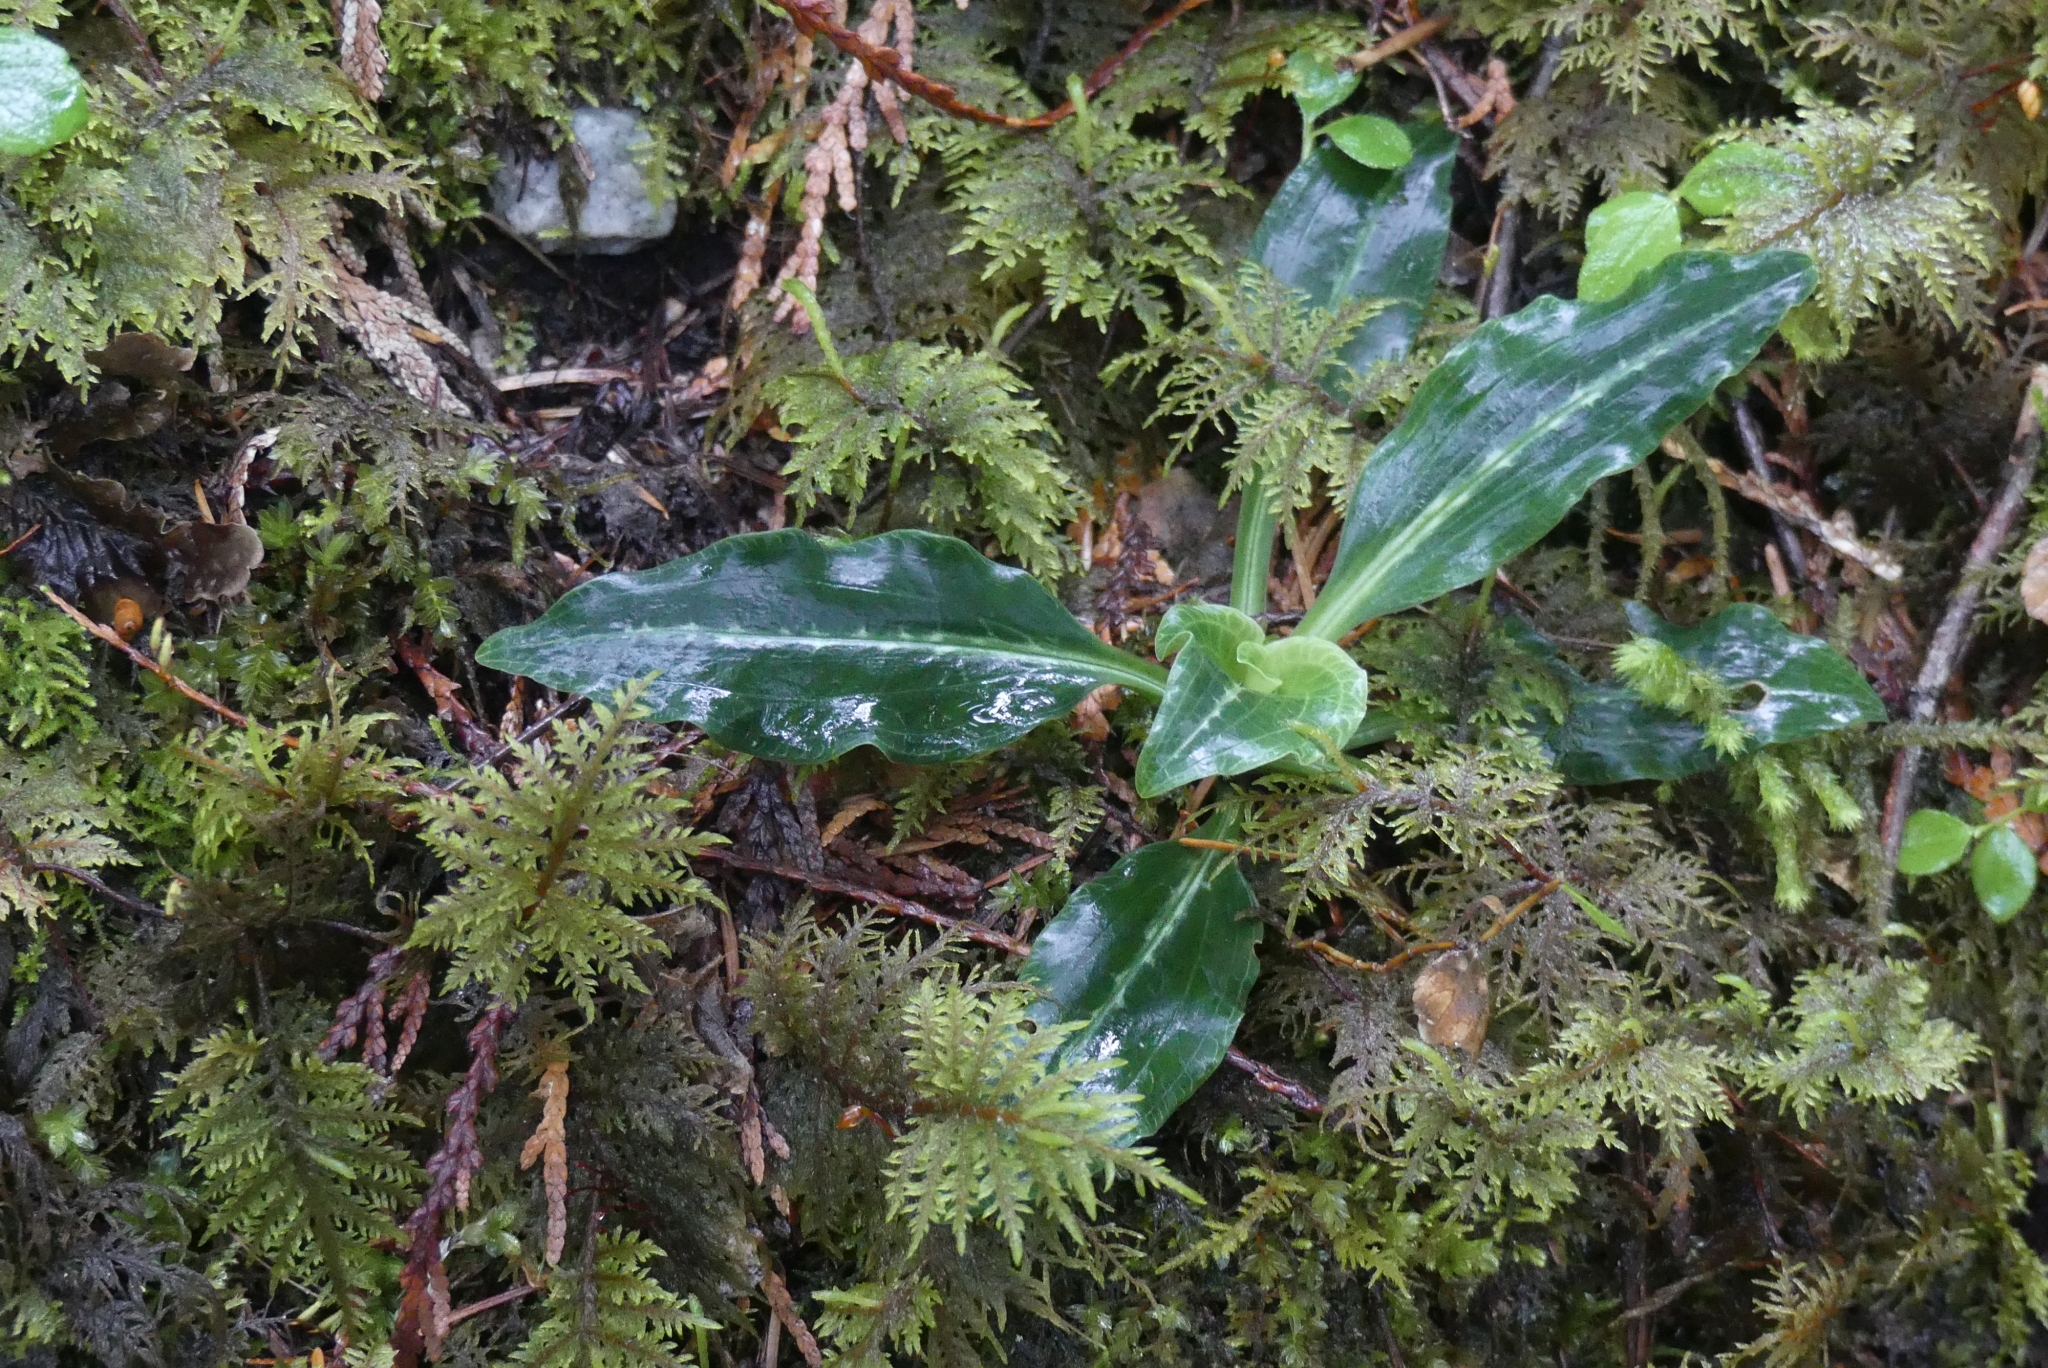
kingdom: Plantae
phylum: Tracheophyta
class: Liliopsida
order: Asparagales
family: Orchidaceae
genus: Goodyera
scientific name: Goodyera oblongifolia
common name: Giant rattlesnake-plantain
